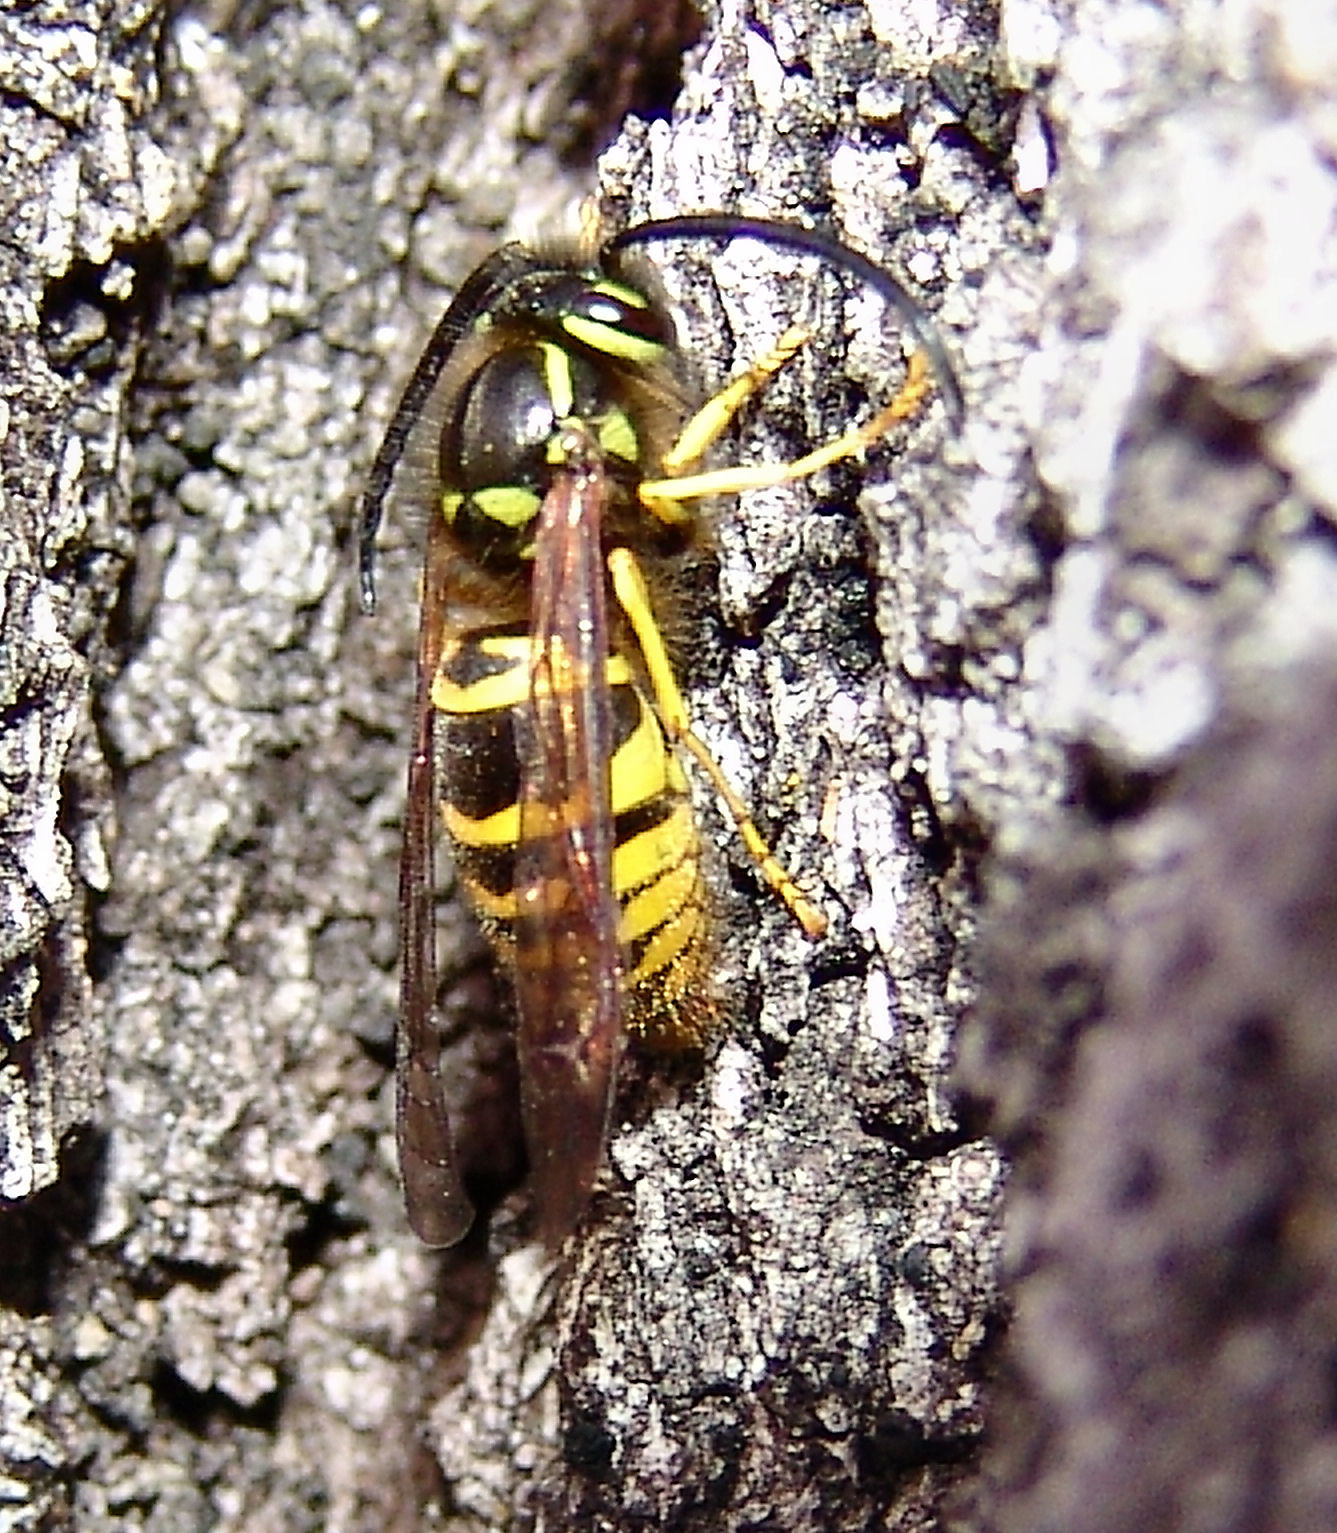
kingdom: Animalia
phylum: Arthropoda
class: Insecta
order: Hymenoptera
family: Vespidae
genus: Vespula
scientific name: Vespula maculifrons
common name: Eastern yellowjacket
